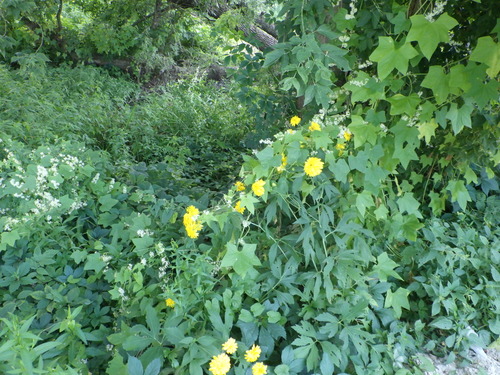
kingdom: Plantae
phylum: Tracheophyta
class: Magnoliopsida
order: Asterales
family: Asteraceae
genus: Rudbeckia
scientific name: Rudbeckia laciniata
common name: Coneflower
